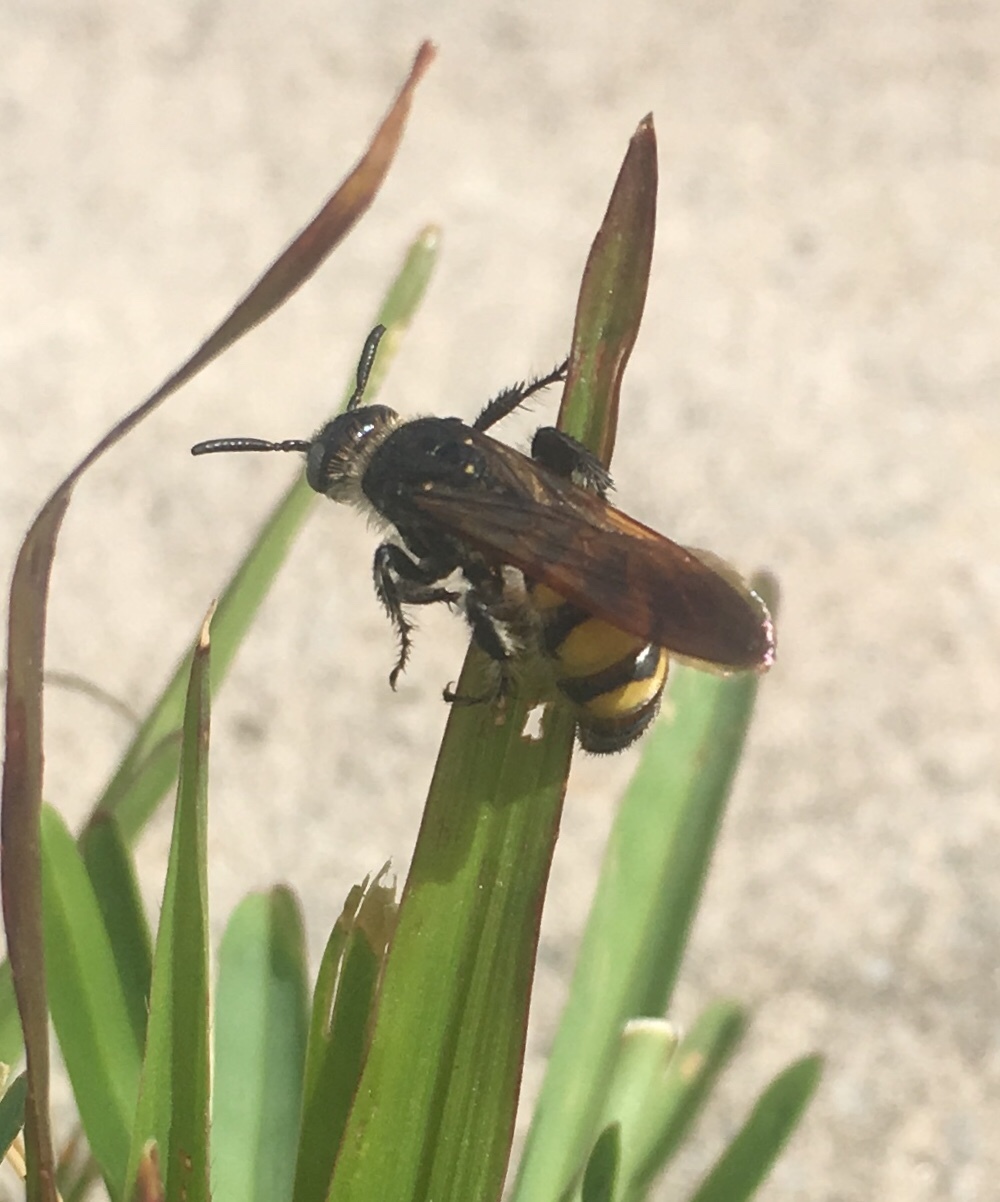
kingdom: Animalia
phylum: Arthropoda
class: Insecta
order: Hymenoptera
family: Scoliidae
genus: Dielis
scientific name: Dielis
